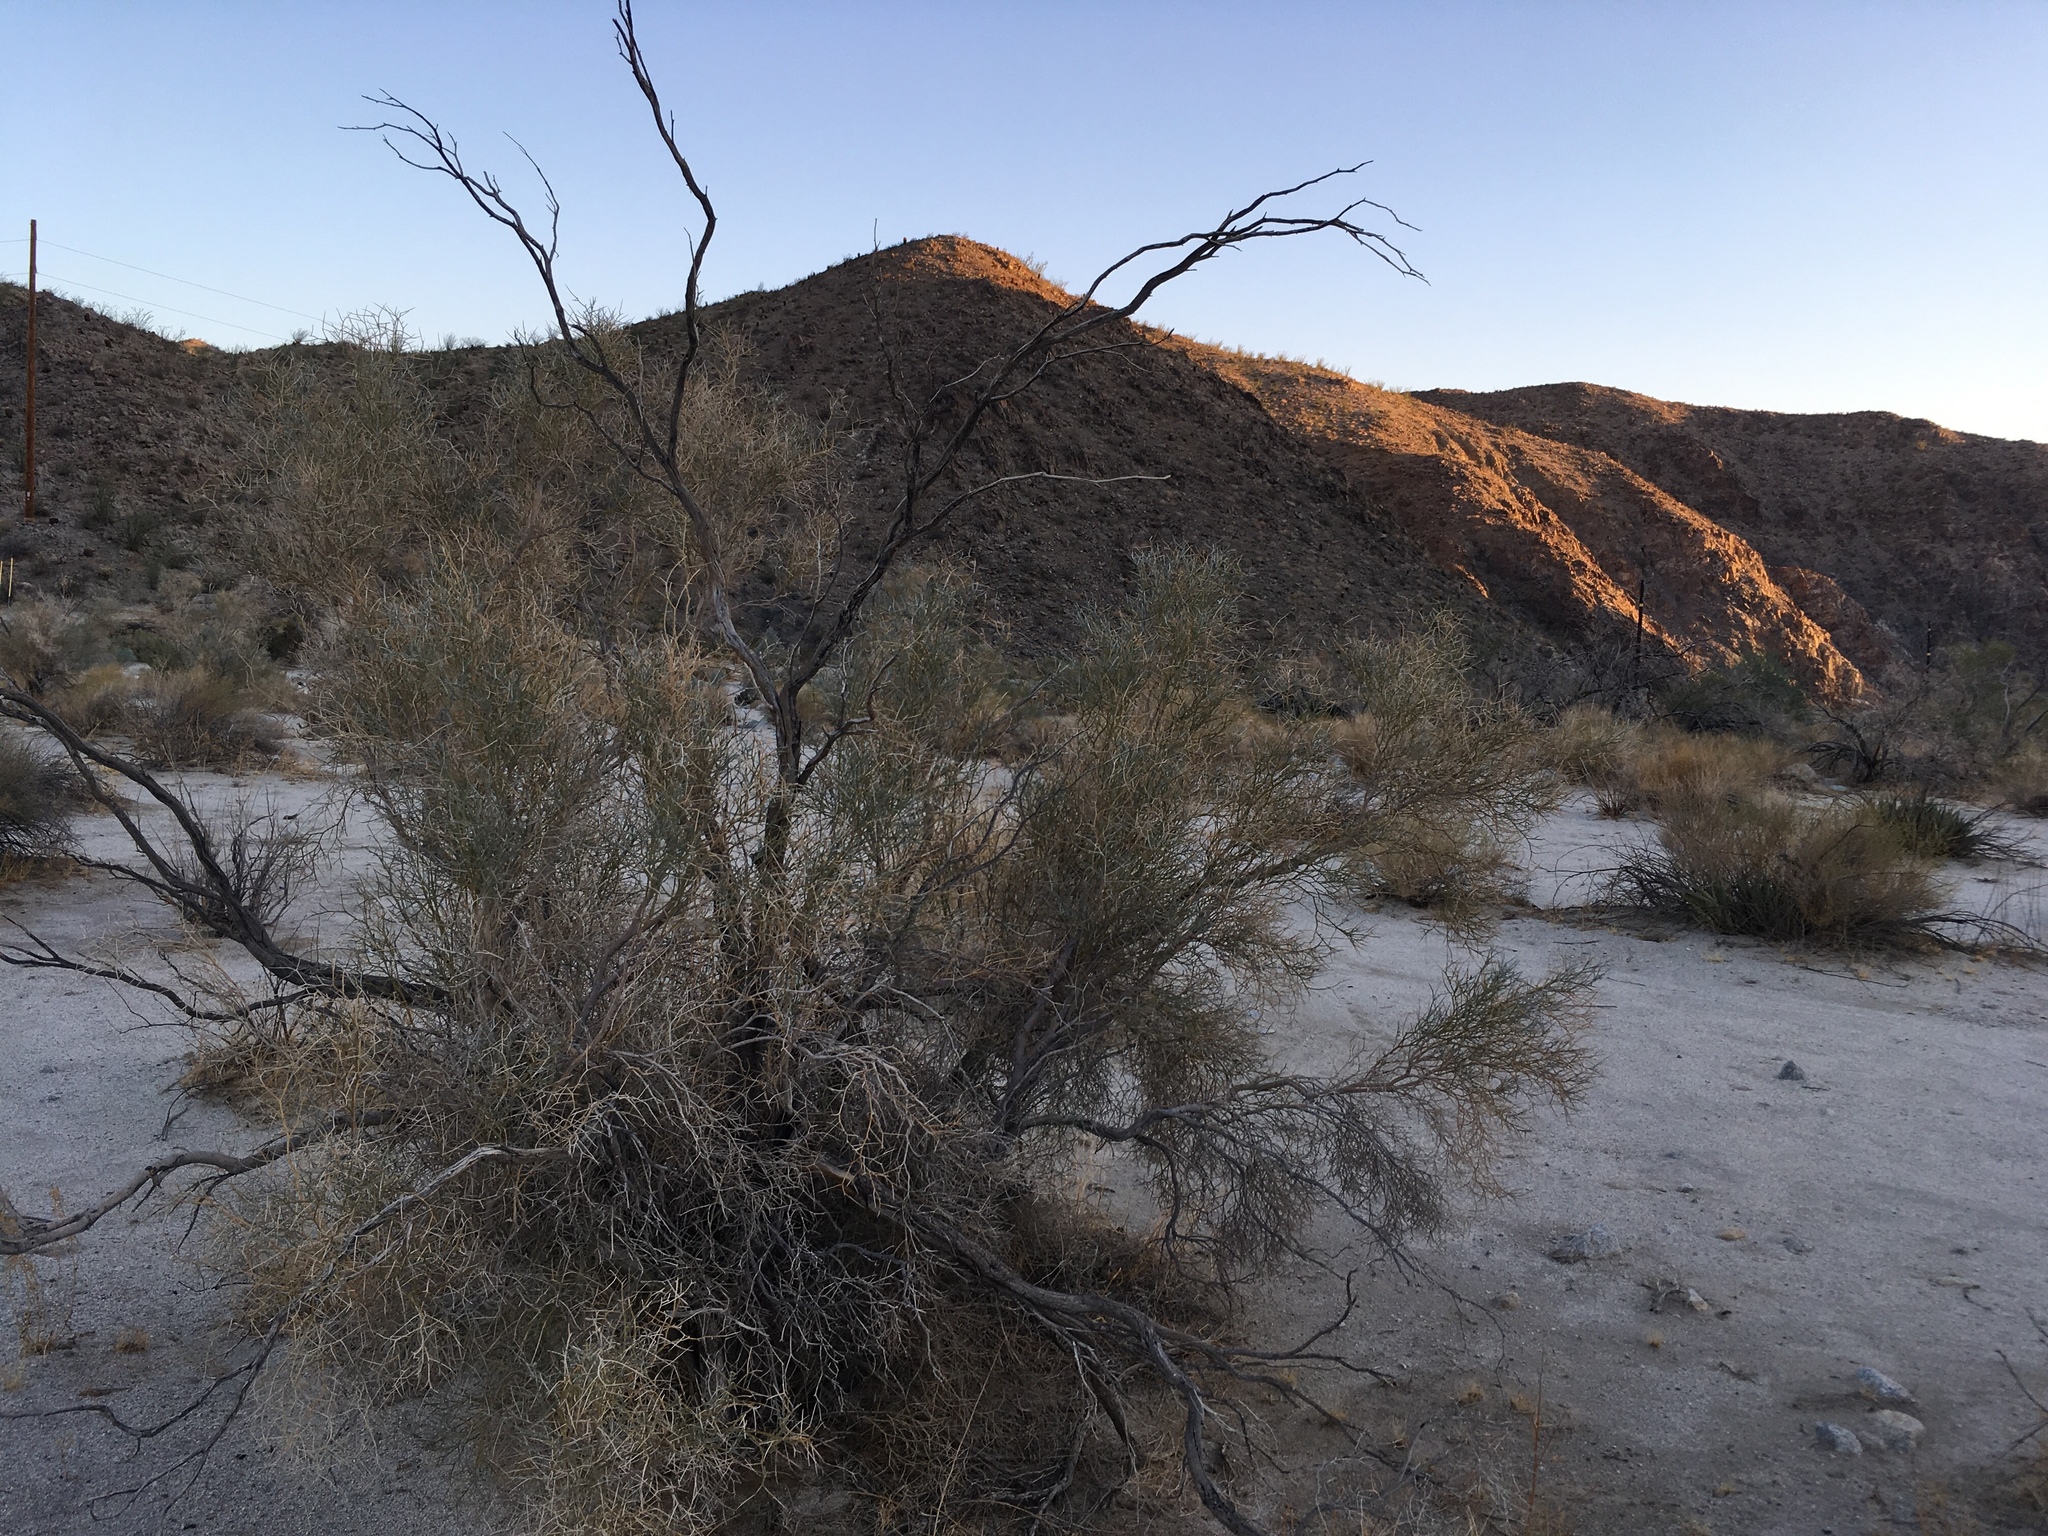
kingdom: Plantae
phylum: Tracheophyta
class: Magnoliopsida
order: Fabales
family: Fabaceae
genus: Psorothamnus
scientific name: Psorothamnus spinosus
